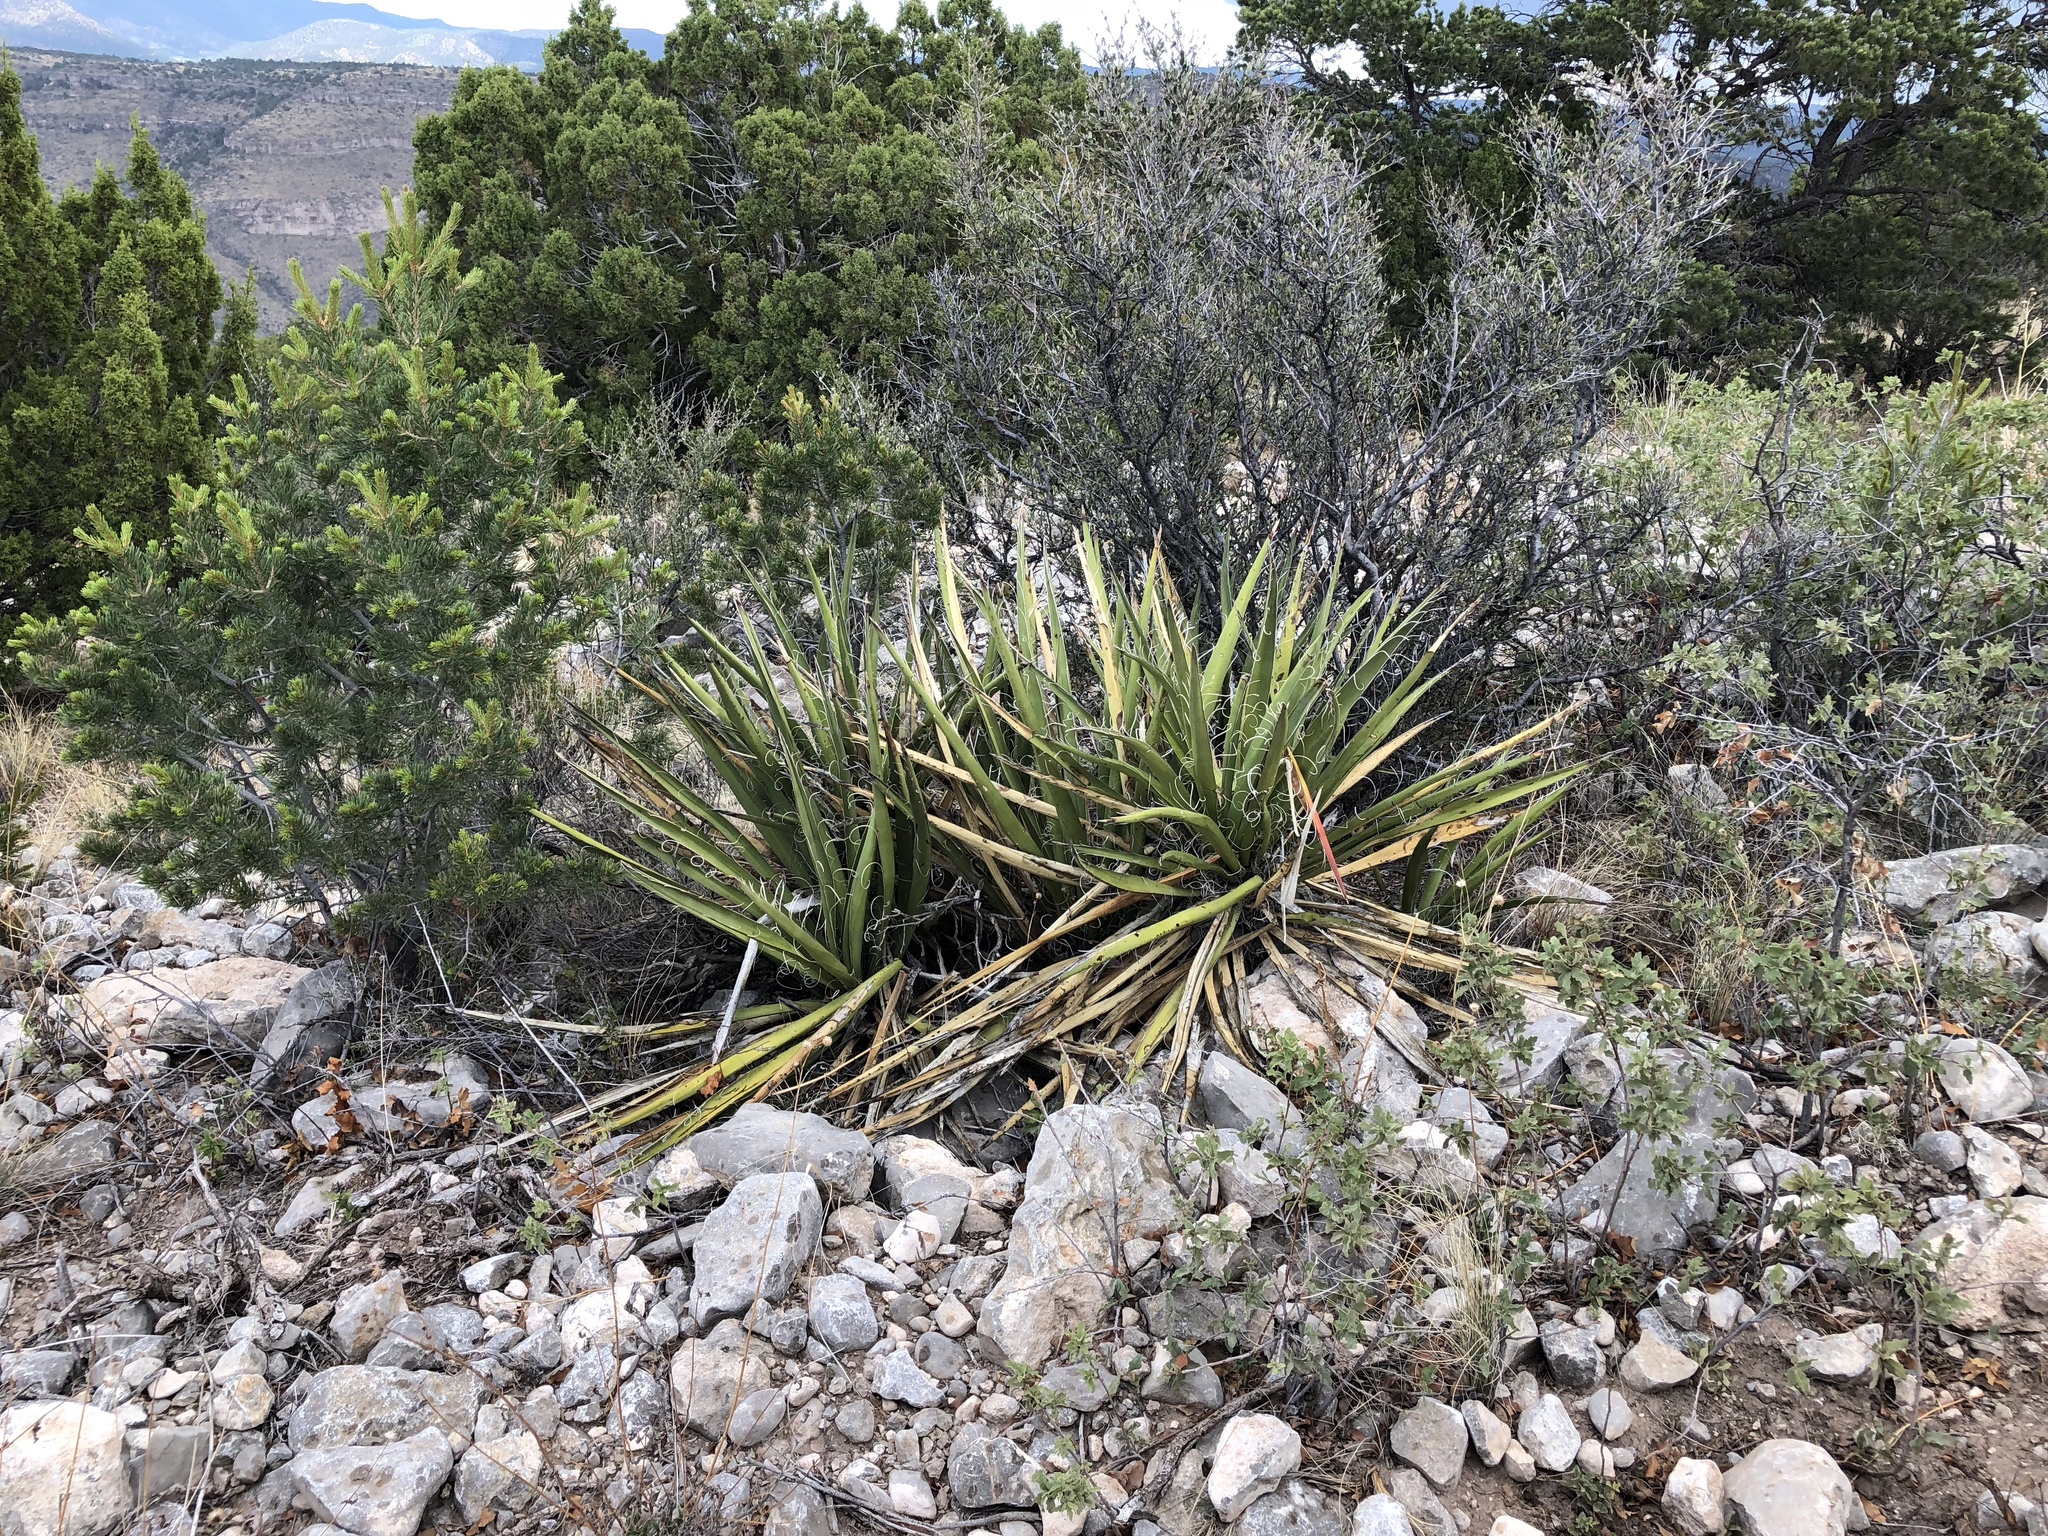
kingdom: Plantae
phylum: Tracheophyta
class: Liliopsida
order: Asparagales
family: Asparagaceae
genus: Yucca
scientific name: Yucca baccata
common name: Banana yucca
